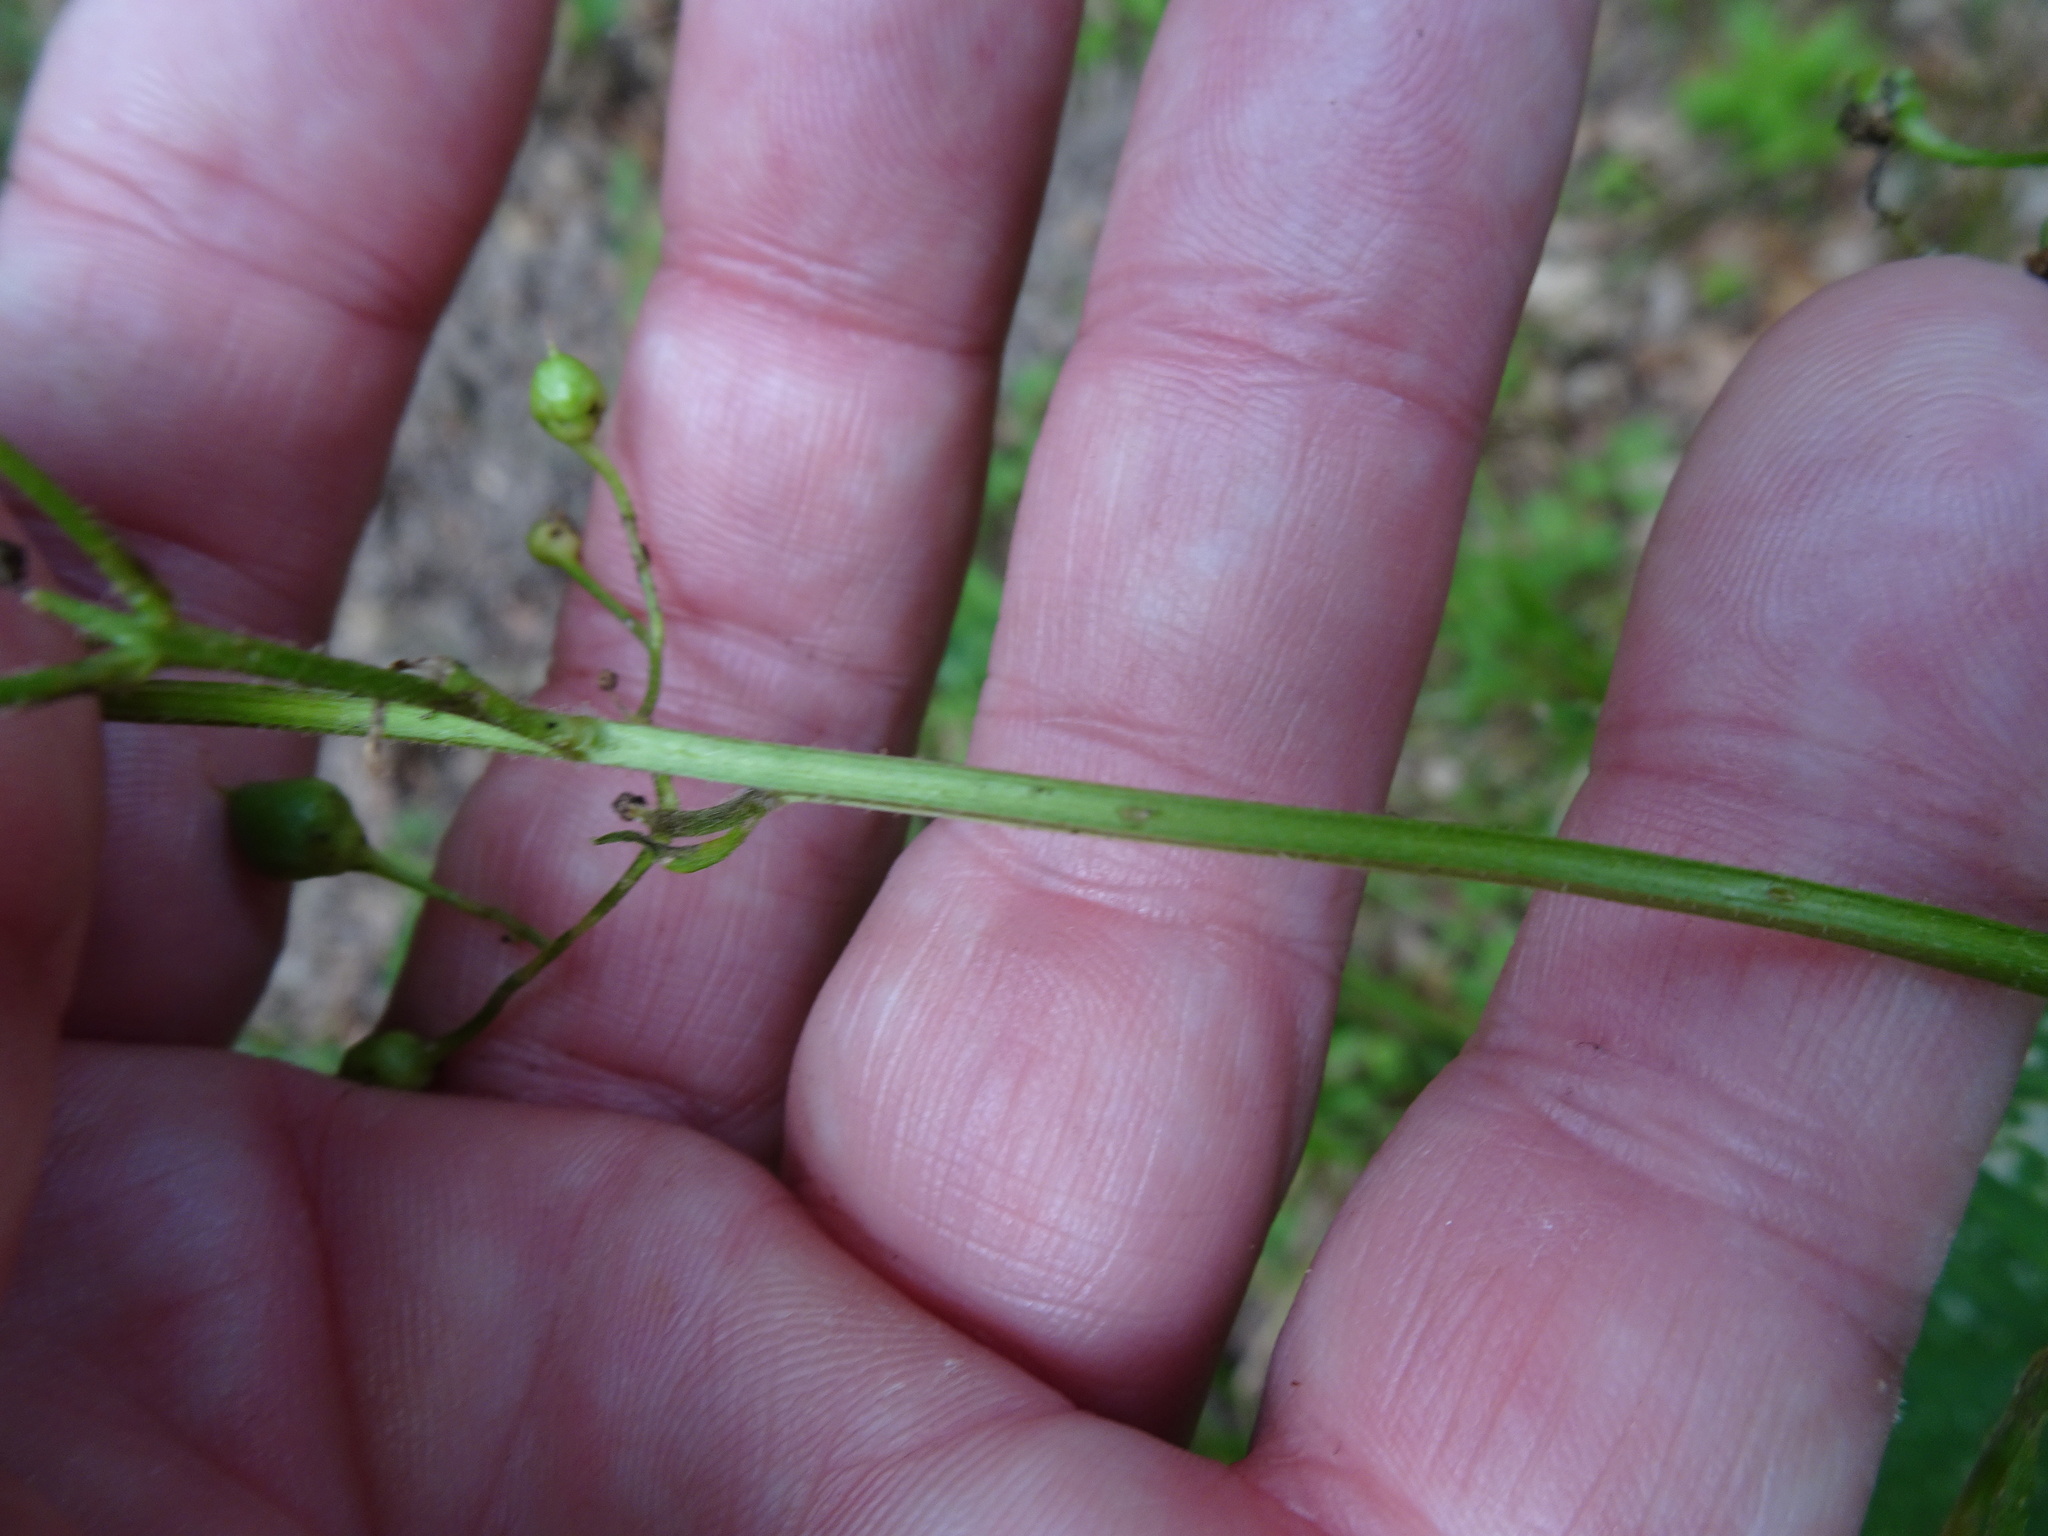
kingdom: Plantae
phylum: Tracheophyta
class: Magnoliopsida
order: Lamiales
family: Scrophulariaceae
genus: Scrophularia
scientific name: Scrophularia nodosa
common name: Common figwort
